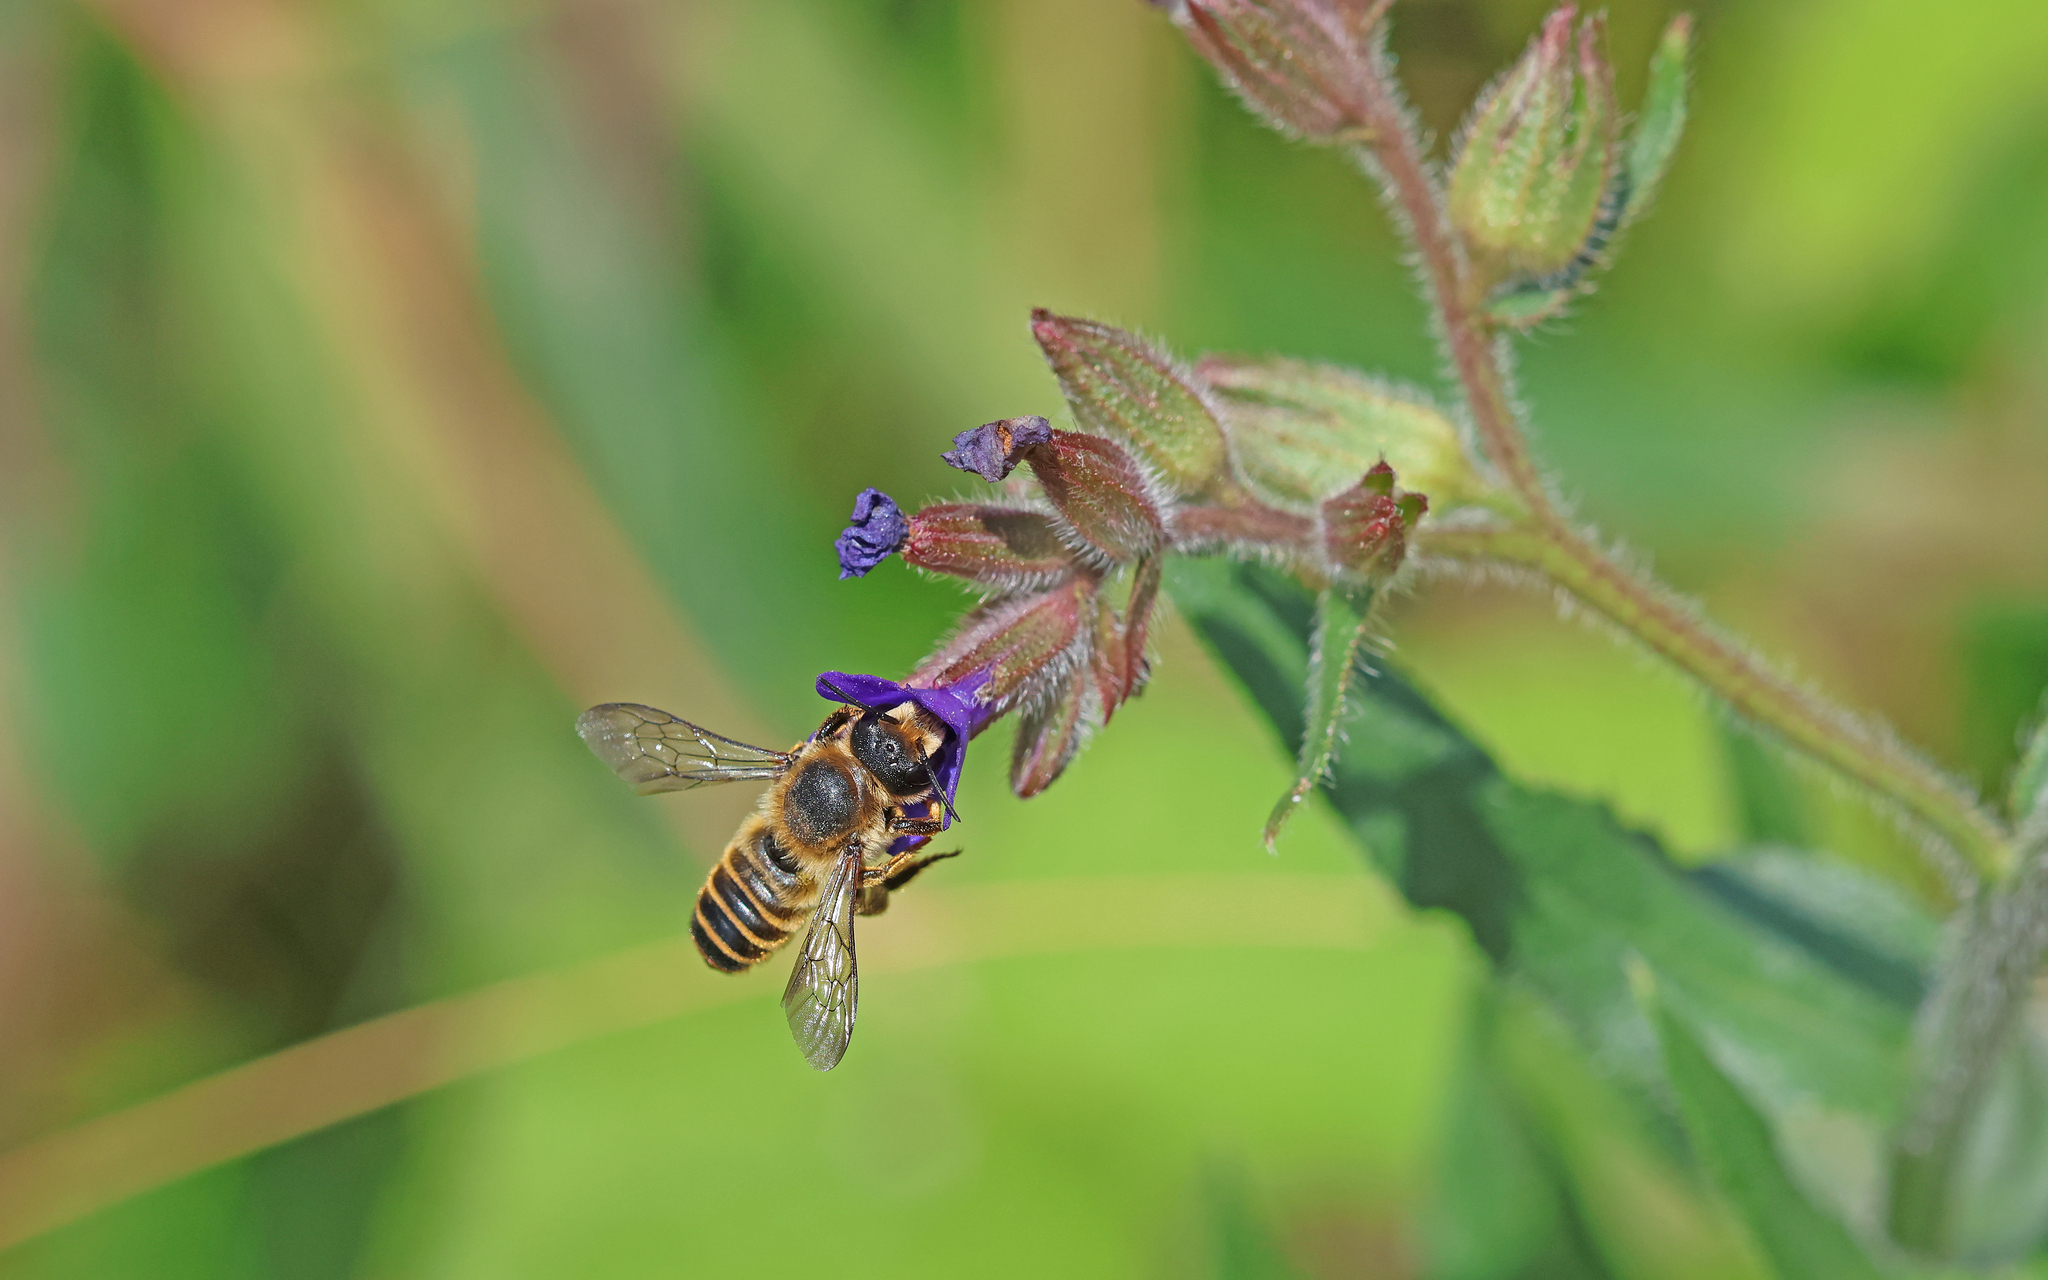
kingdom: Animalia
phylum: Arthropoda
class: Insecta
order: Hymenoptera
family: Megachilidae
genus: Megachile
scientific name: Megachile ericetorum
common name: Leafcutter bee
